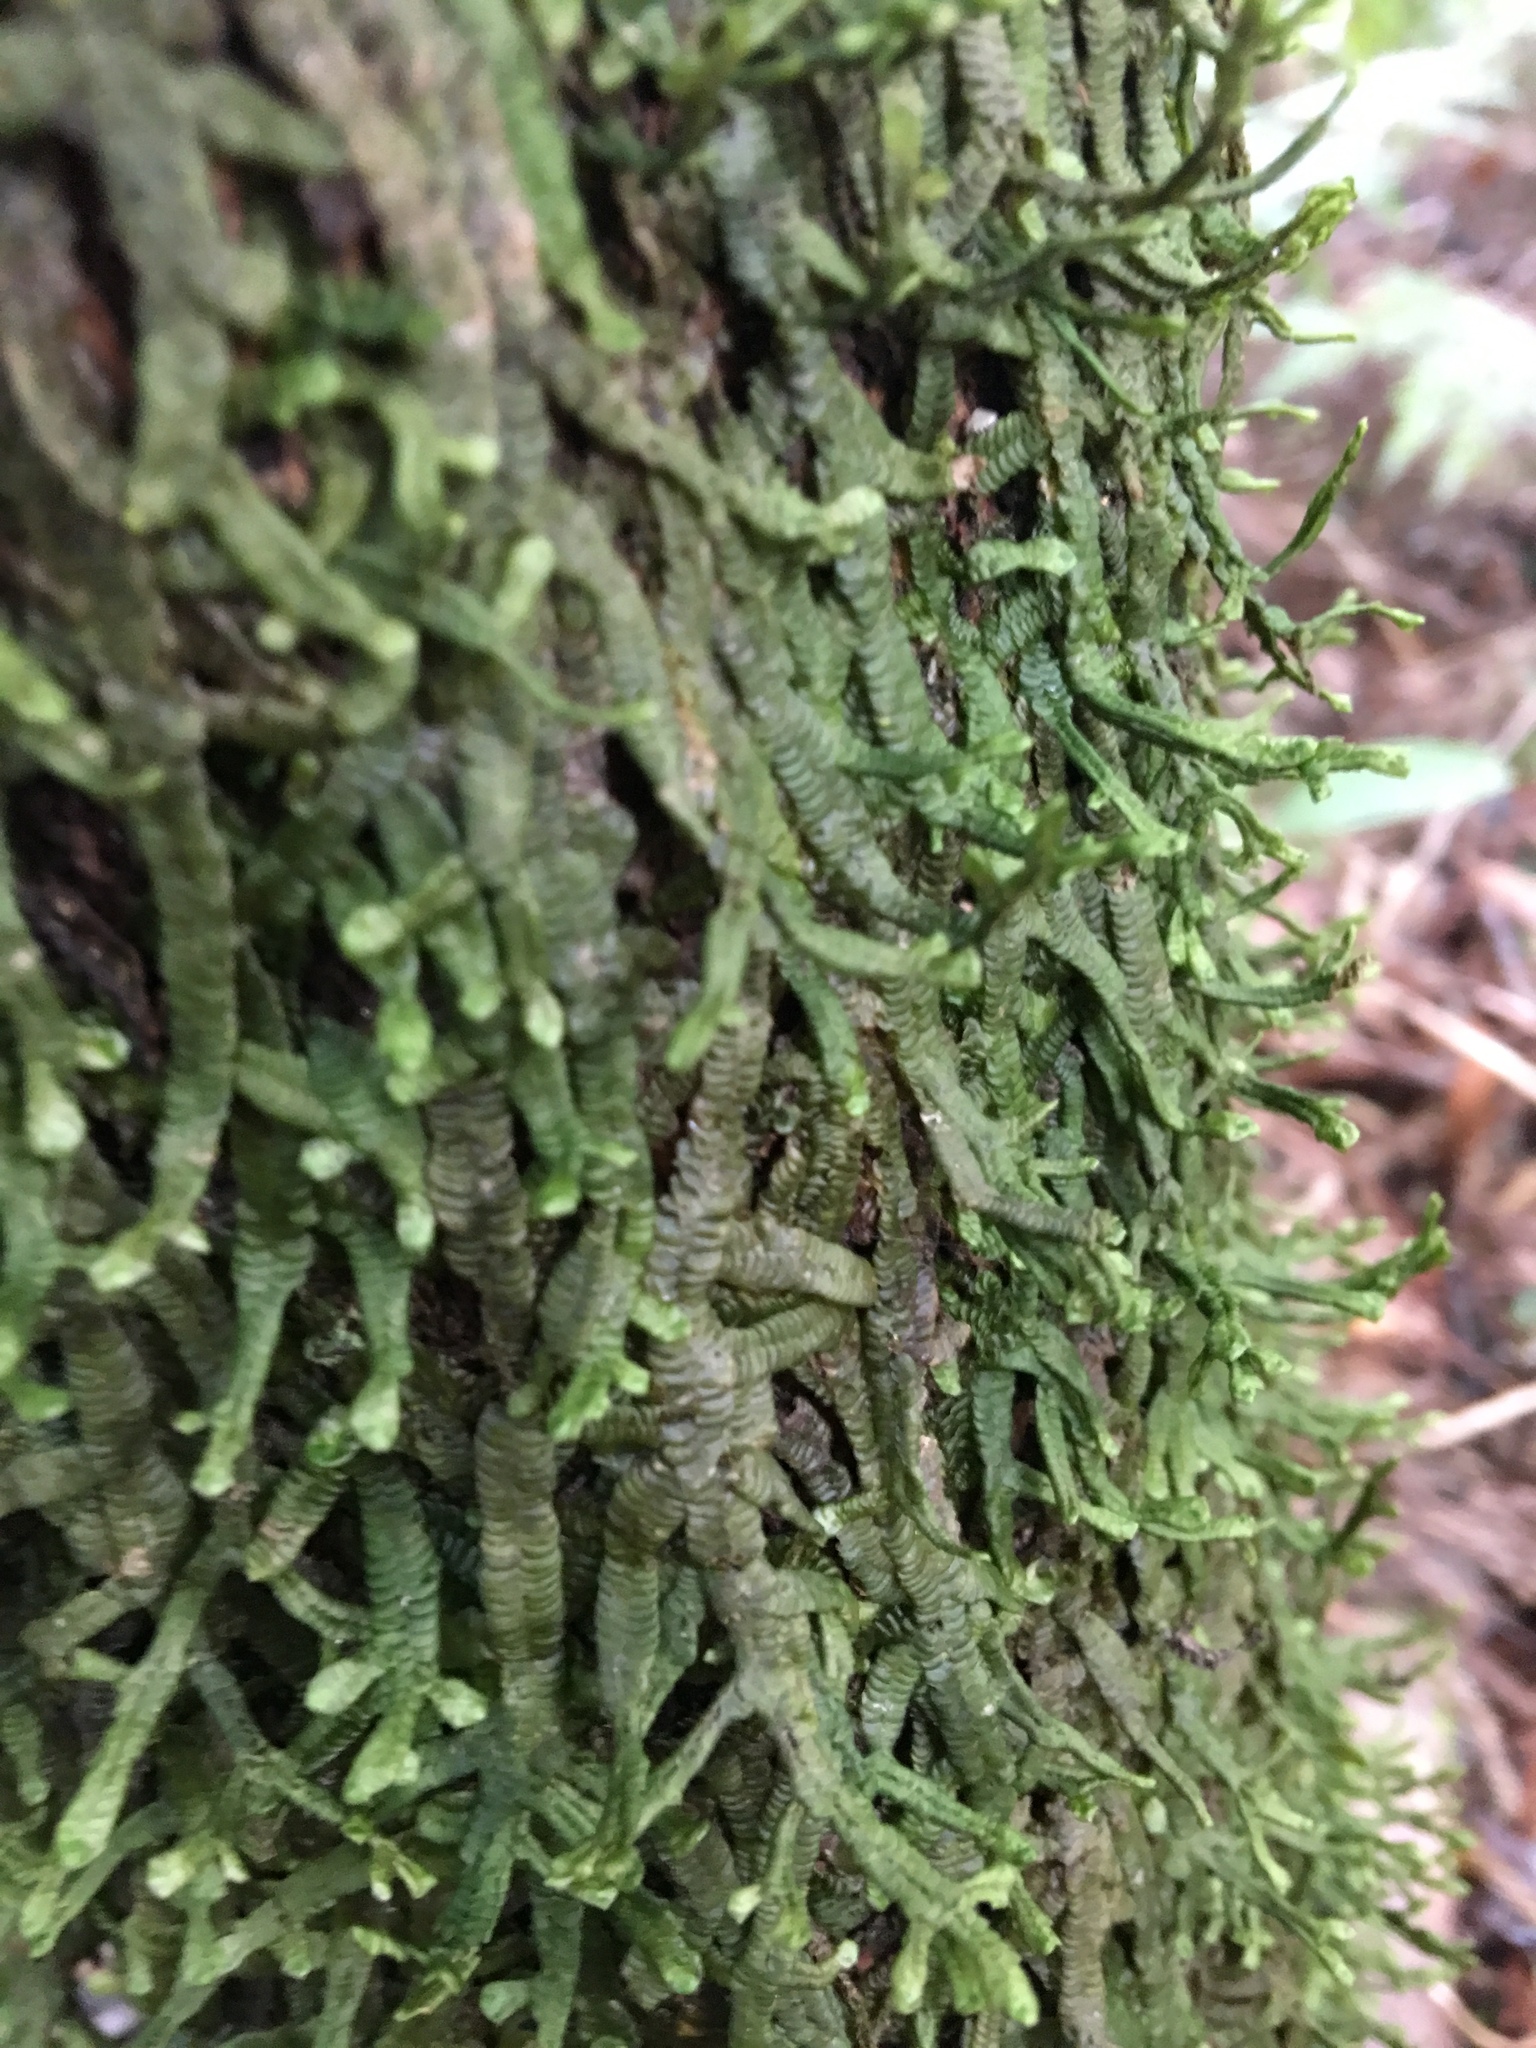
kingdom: Plantae
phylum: Marchantiophyta
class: Jungermanniopsida
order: Porellales
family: Porellaceae
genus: Porella
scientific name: Porella elegantula
